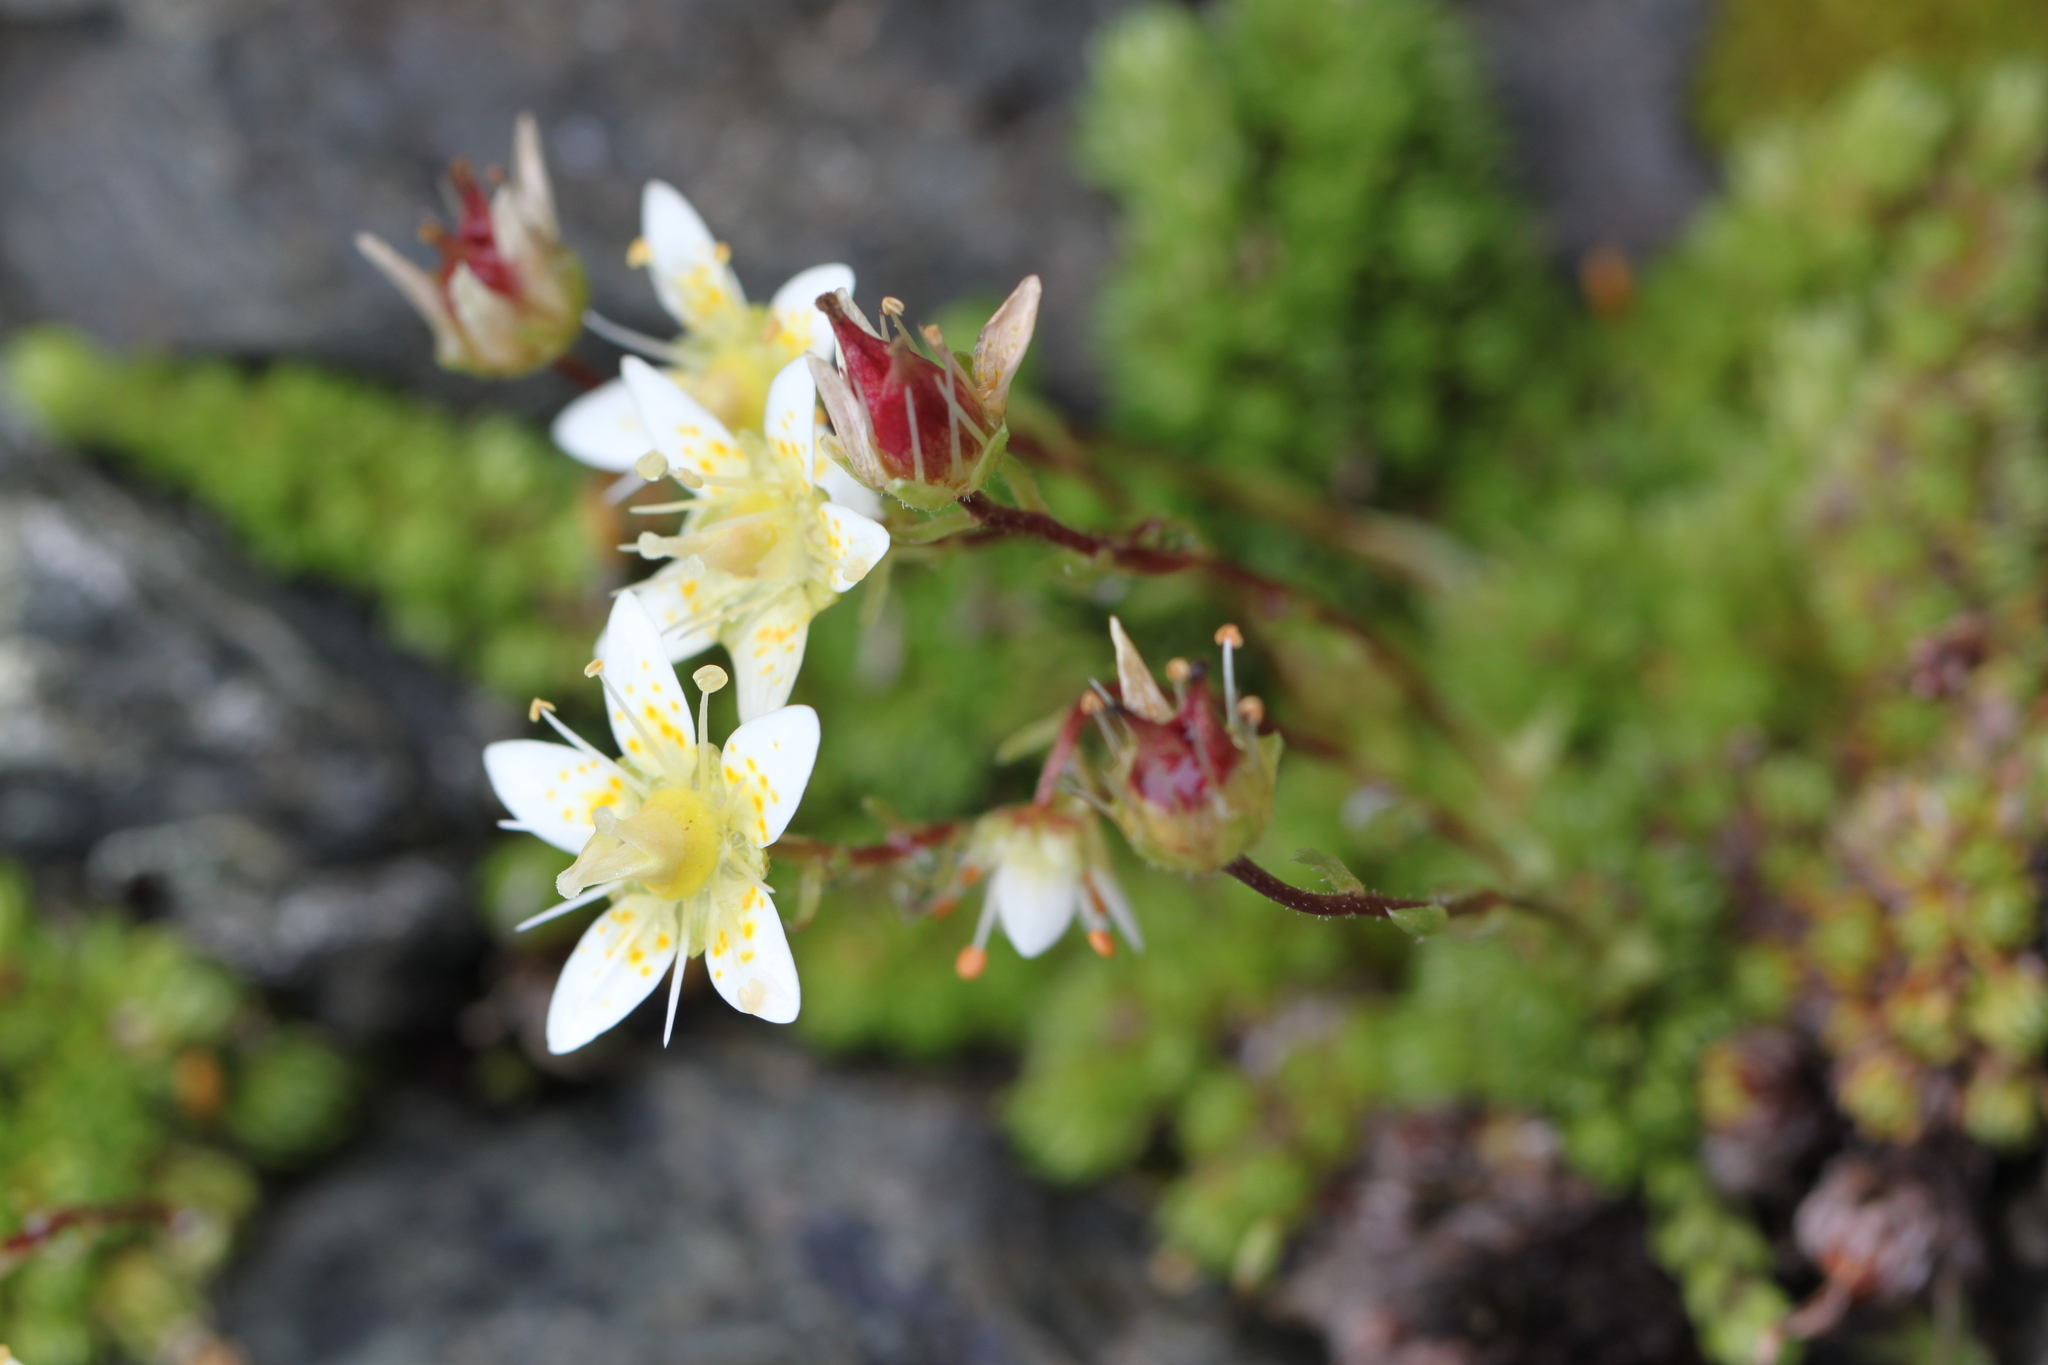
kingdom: Plantae
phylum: Tracheophyta
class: Magnoliopsida
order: Saxifragales
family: Saxifragaceae
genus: Saxifraga
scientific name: Saxifraga bryoides
